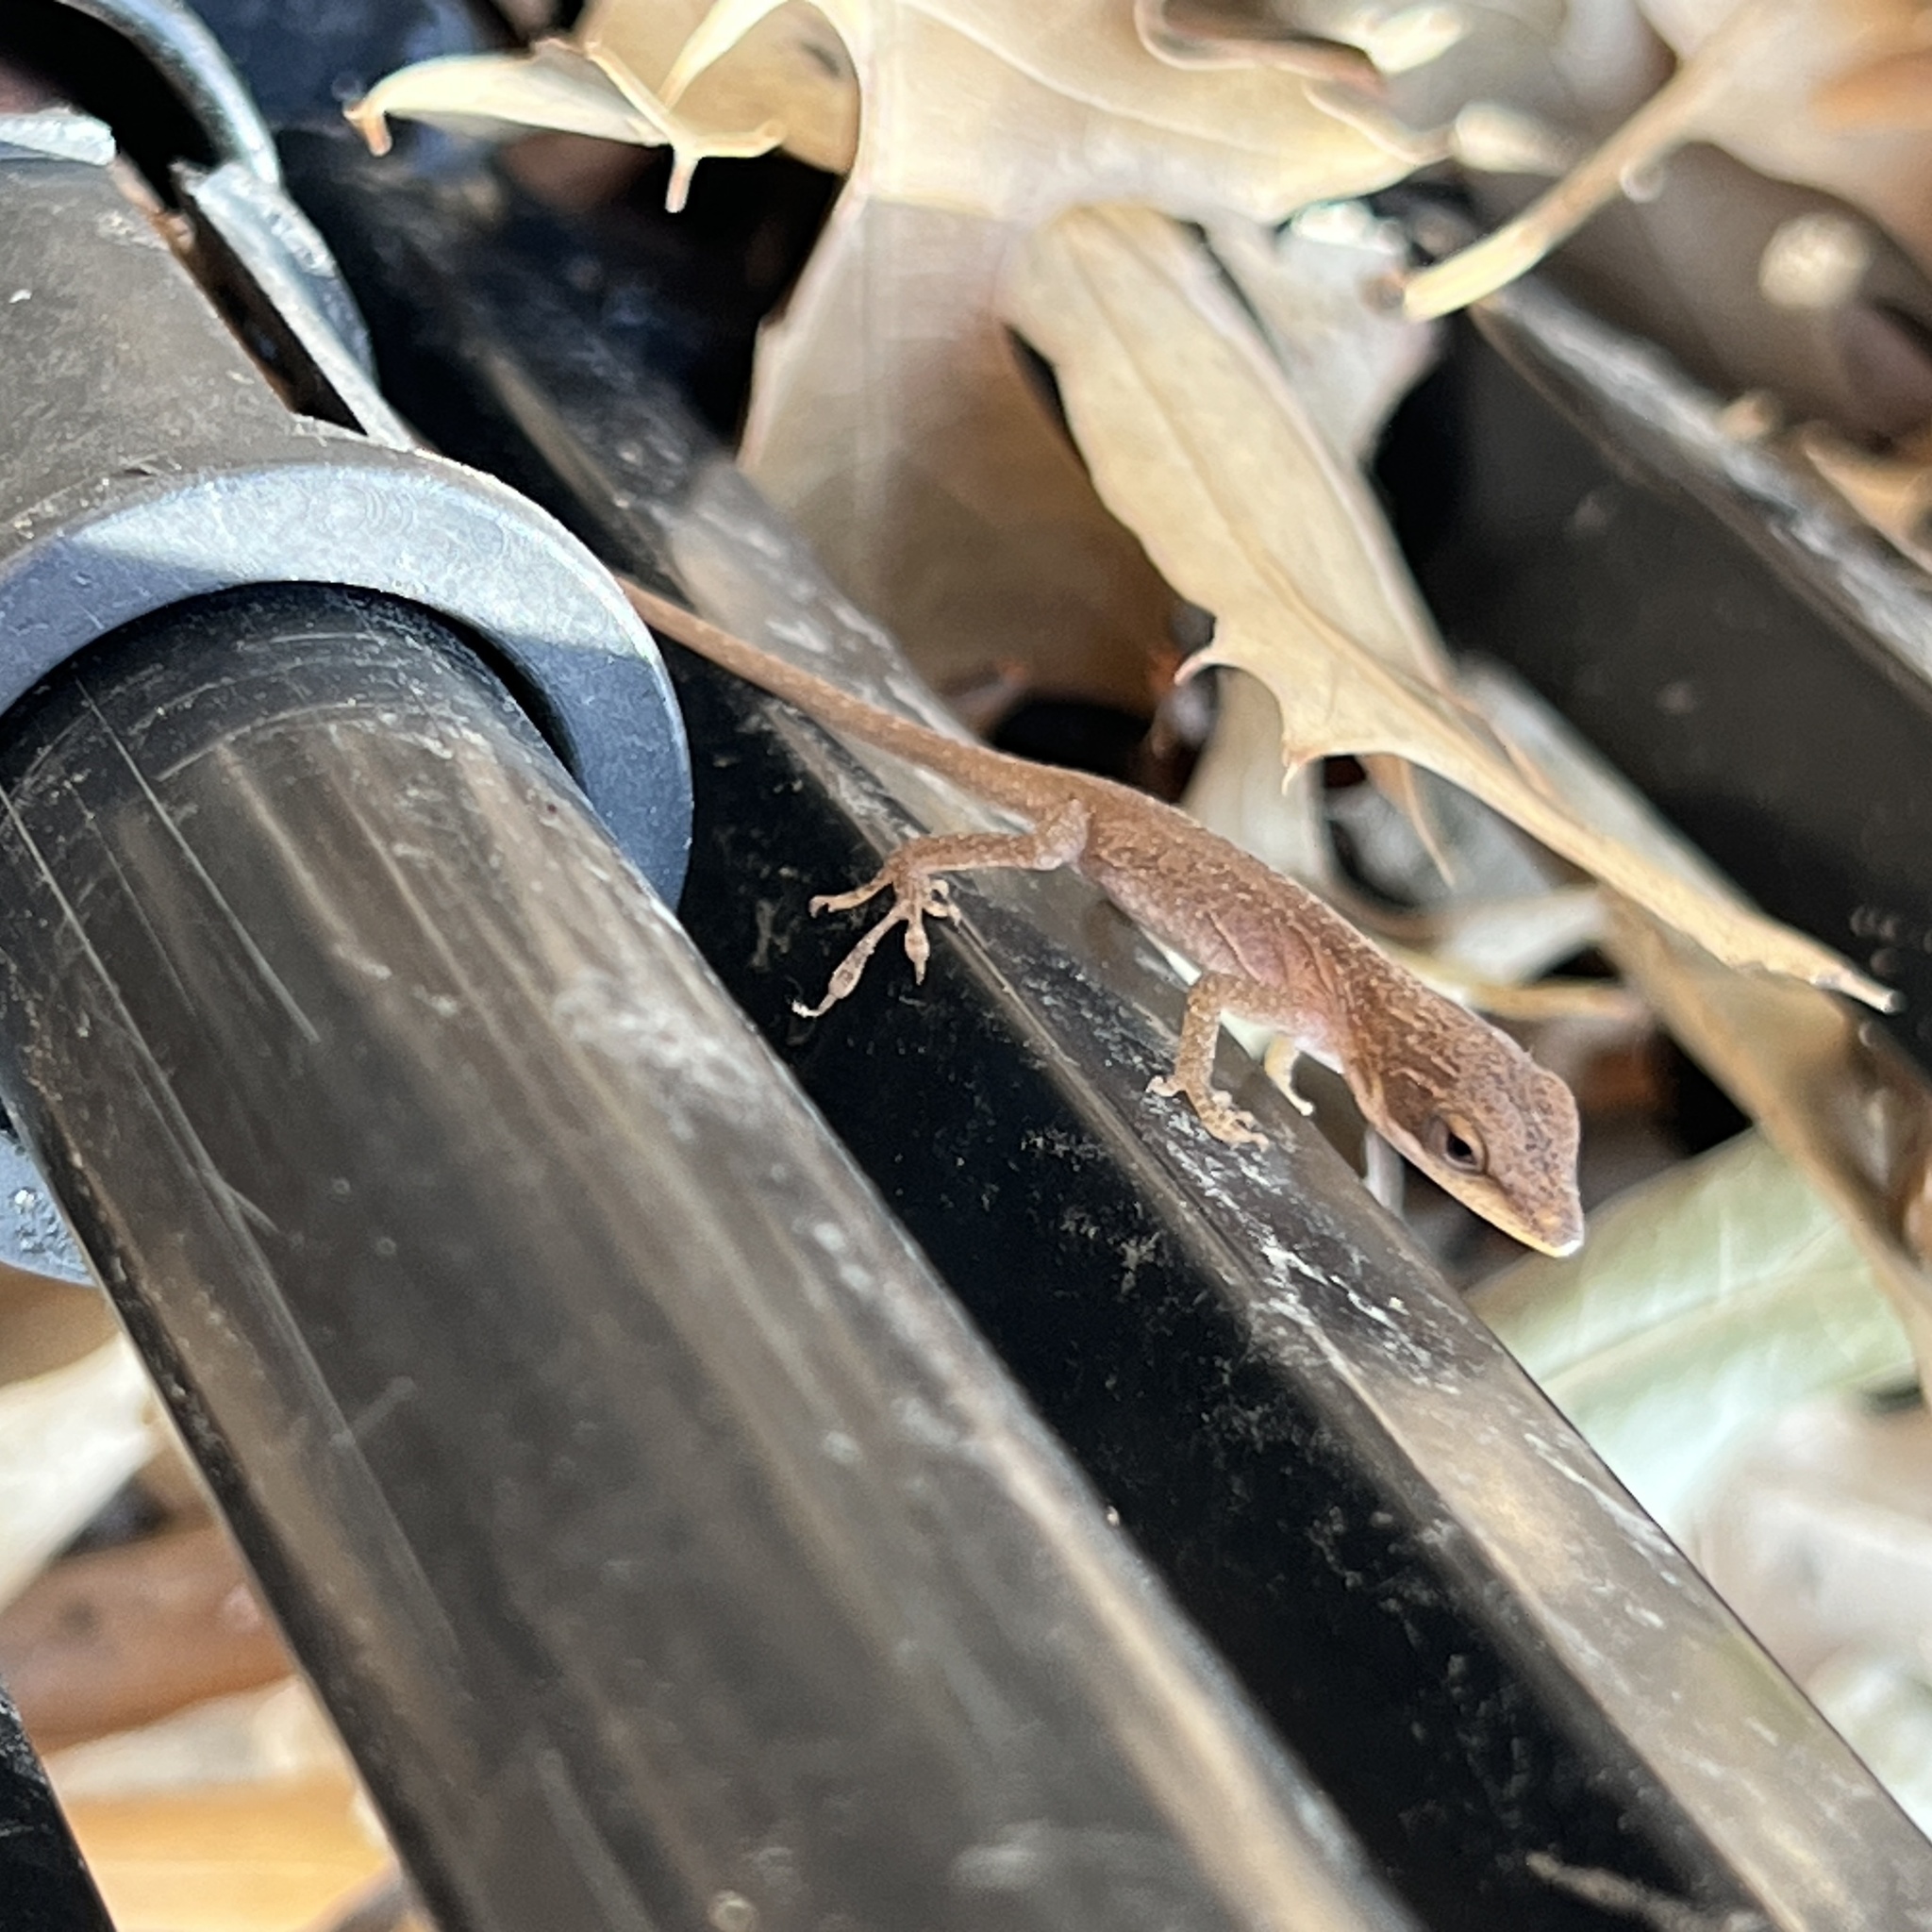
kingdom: Animalia
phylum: Chordata
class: Squamata
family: Dactyloidae
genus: Anolis
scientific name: Anolis carolinensis
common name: Green anole
